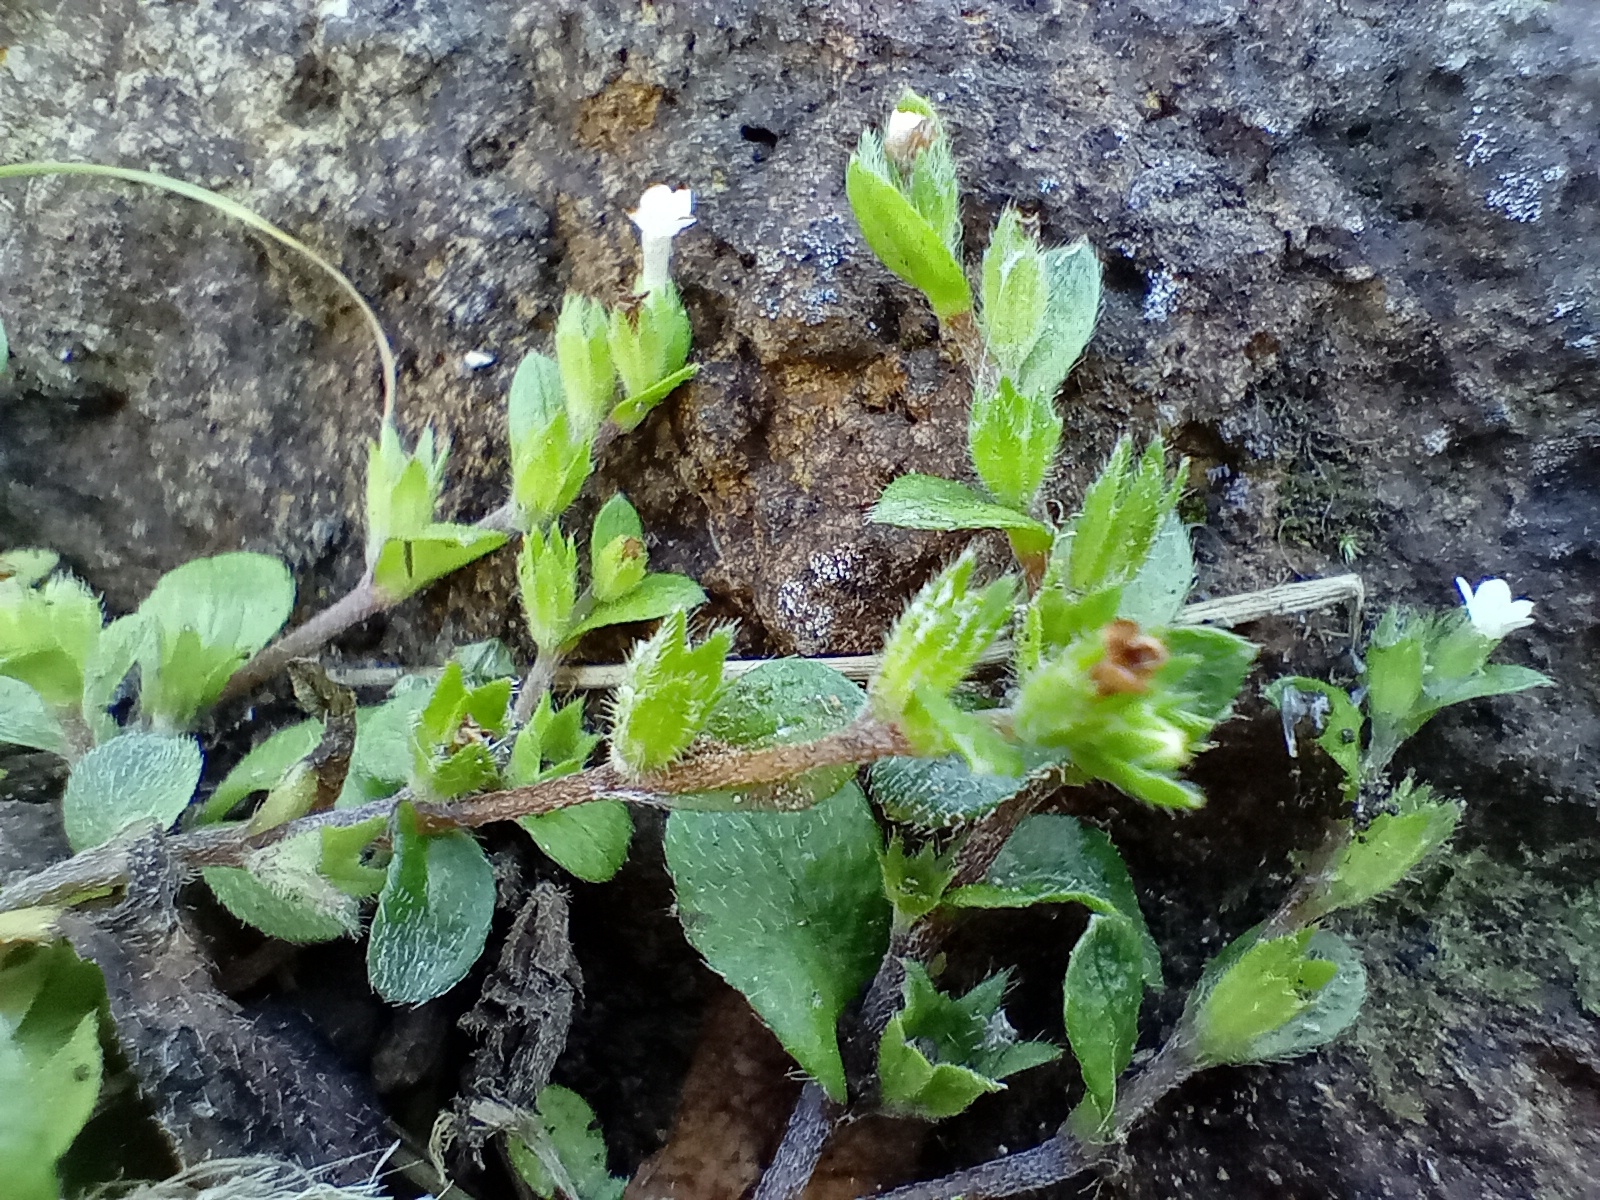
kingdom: Plantae
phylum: Tracheophyta
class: Magnoliopsida
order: Boraginales
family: Boraginaceae
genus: Myosotis
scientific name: Myosotis antarctica
